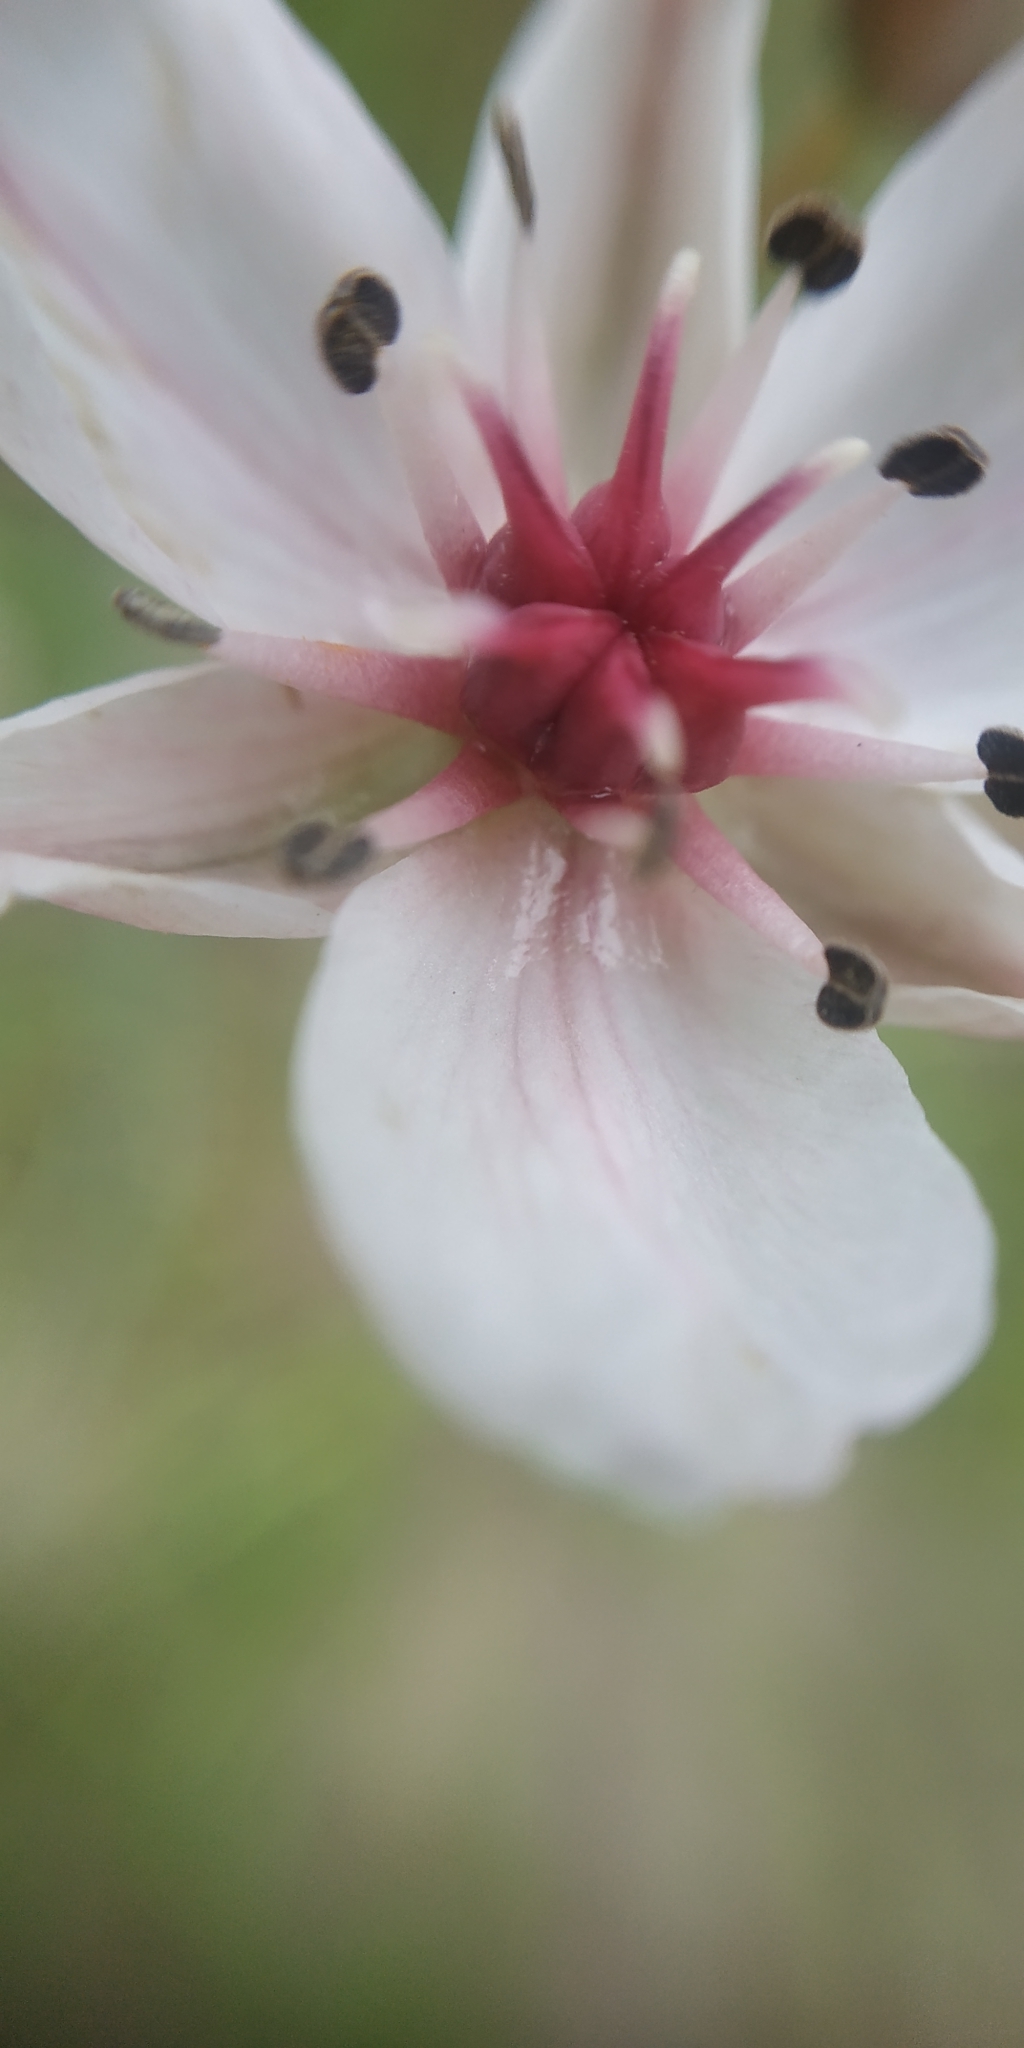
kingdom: Plantae
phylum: Tracheophyta
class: Liliopsida
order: Alismatales
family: Butomaceae
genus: Butomus
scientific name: Butomus umbellatus
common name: Flowering-rush
